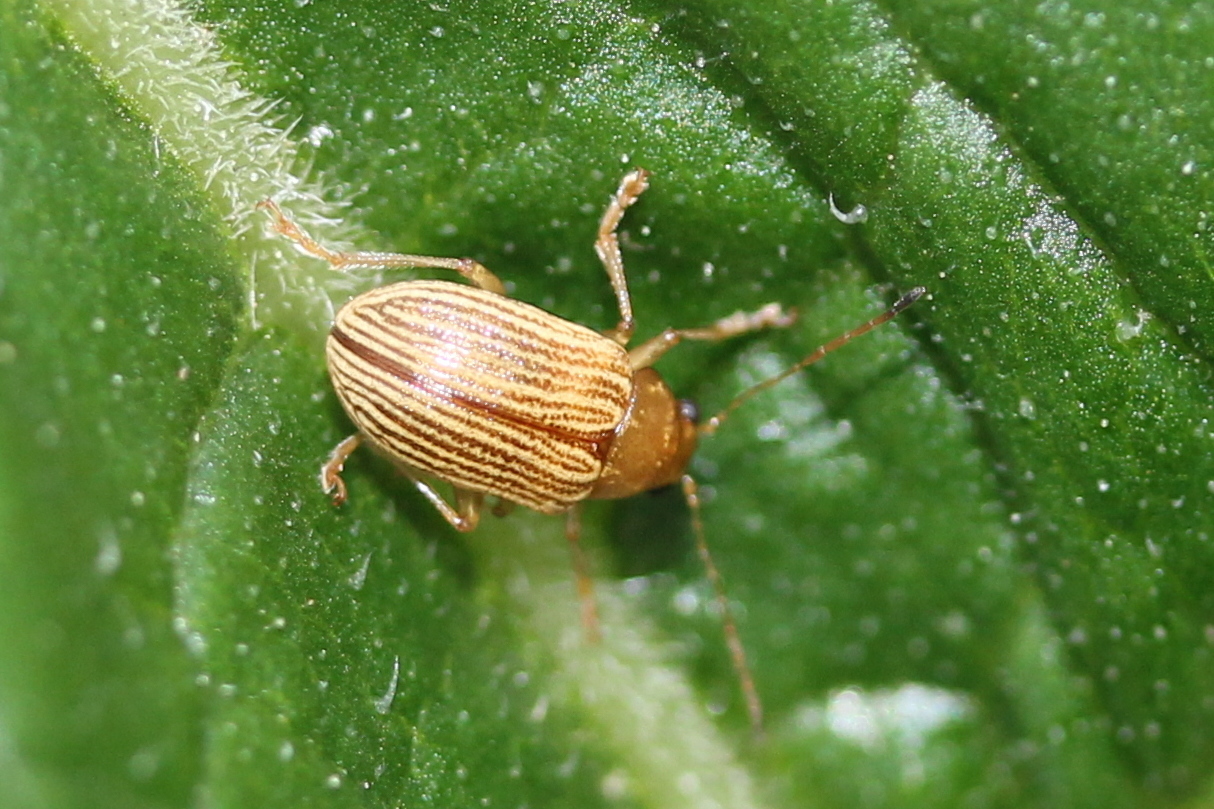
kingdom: Animalia
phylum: Arthropoda
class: Insecta
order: Coleoptera
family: Chrysomelidae
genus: Colaspis
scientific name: Colaspis brunnea
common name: Grape colaspis
